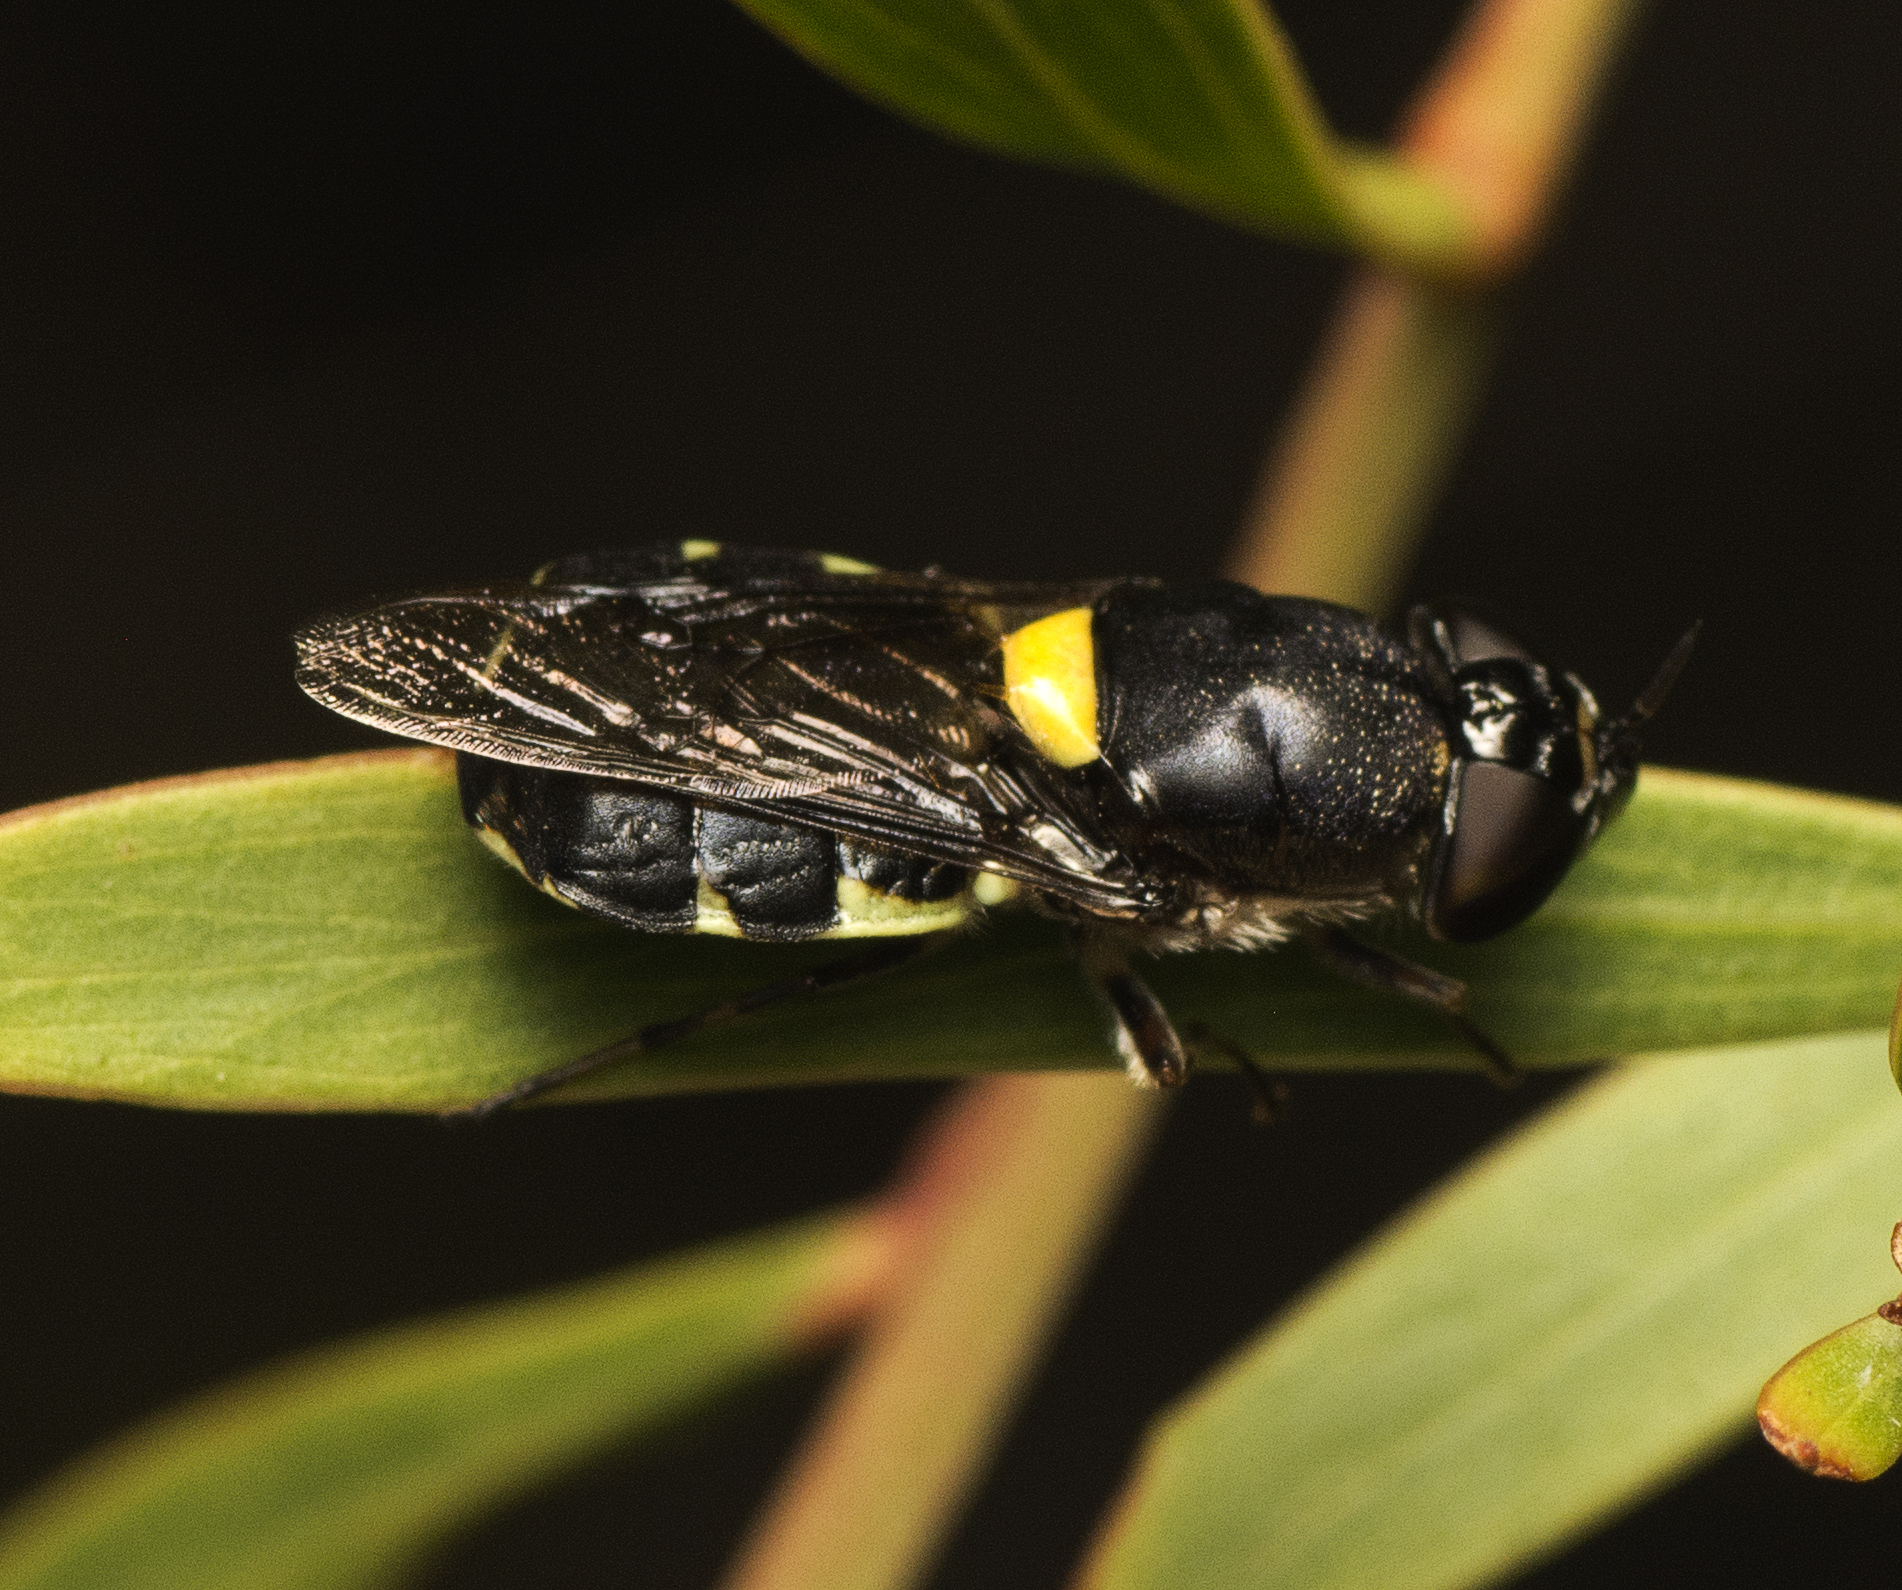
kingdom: Animalia
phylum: Arthropoda
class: Insecta
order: Diptera
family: Stratiomyidae
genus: Odontomyia
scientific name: Odontomyia hunteri
